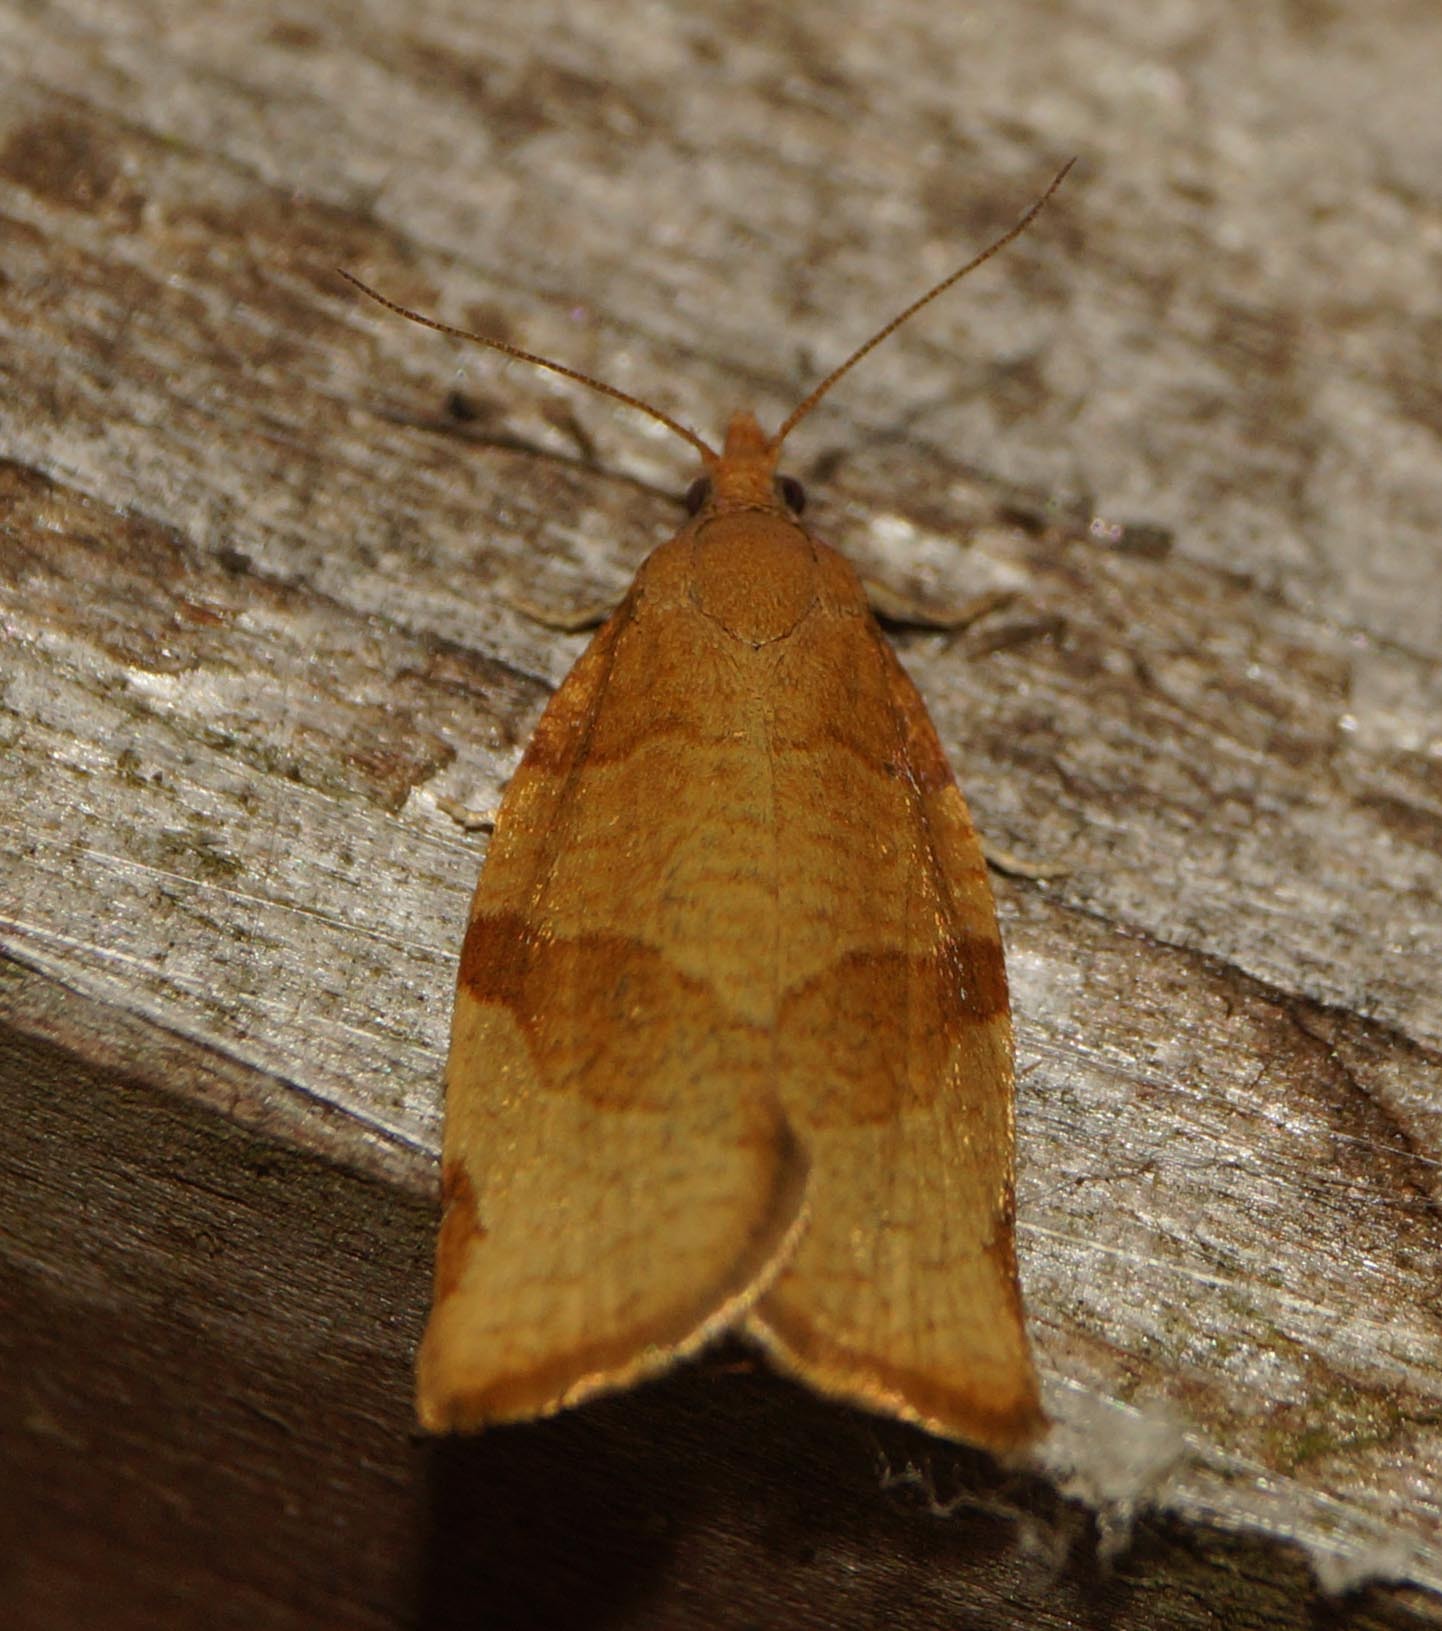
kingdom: Animalia
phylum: Arthropoda
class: Insecta
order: Lepidoptera
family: Tortricidae
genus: Pandemis
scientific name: Pandemis cerasana
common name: Barred fruit-tree tortrix
